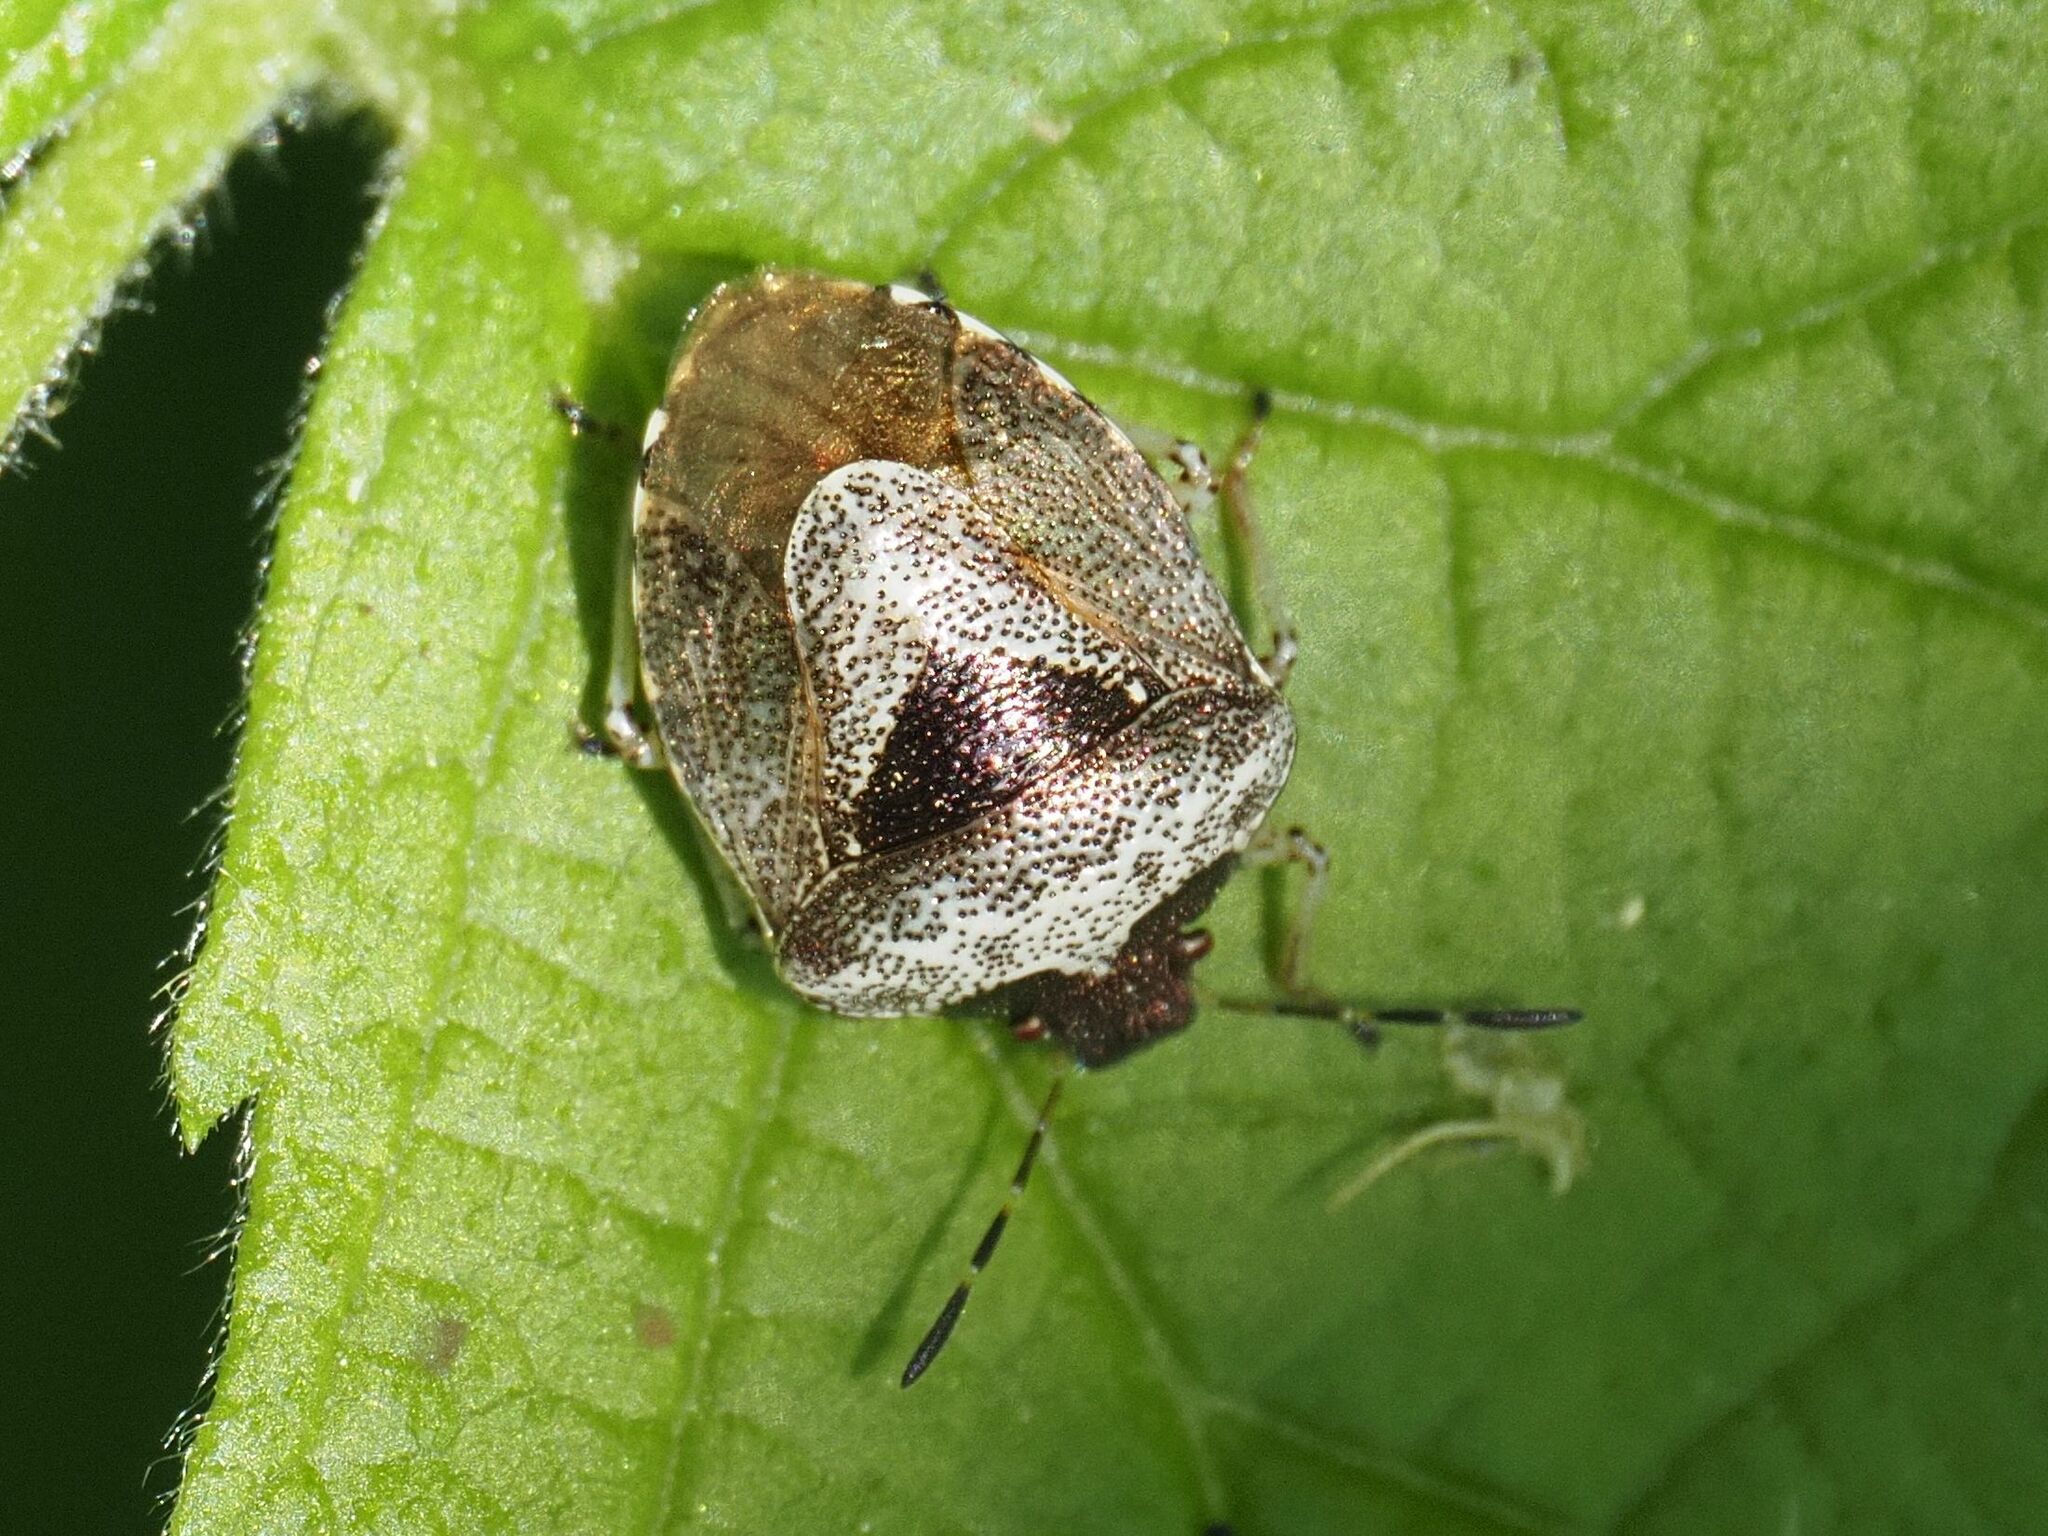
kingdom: Animalia
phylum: Arthropoda
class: Insecta
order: Hemiptera
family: Pentatomidae
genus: Eysarcoris
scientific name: Eysarcoris venustissimus
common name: Woundwort shieldbug
